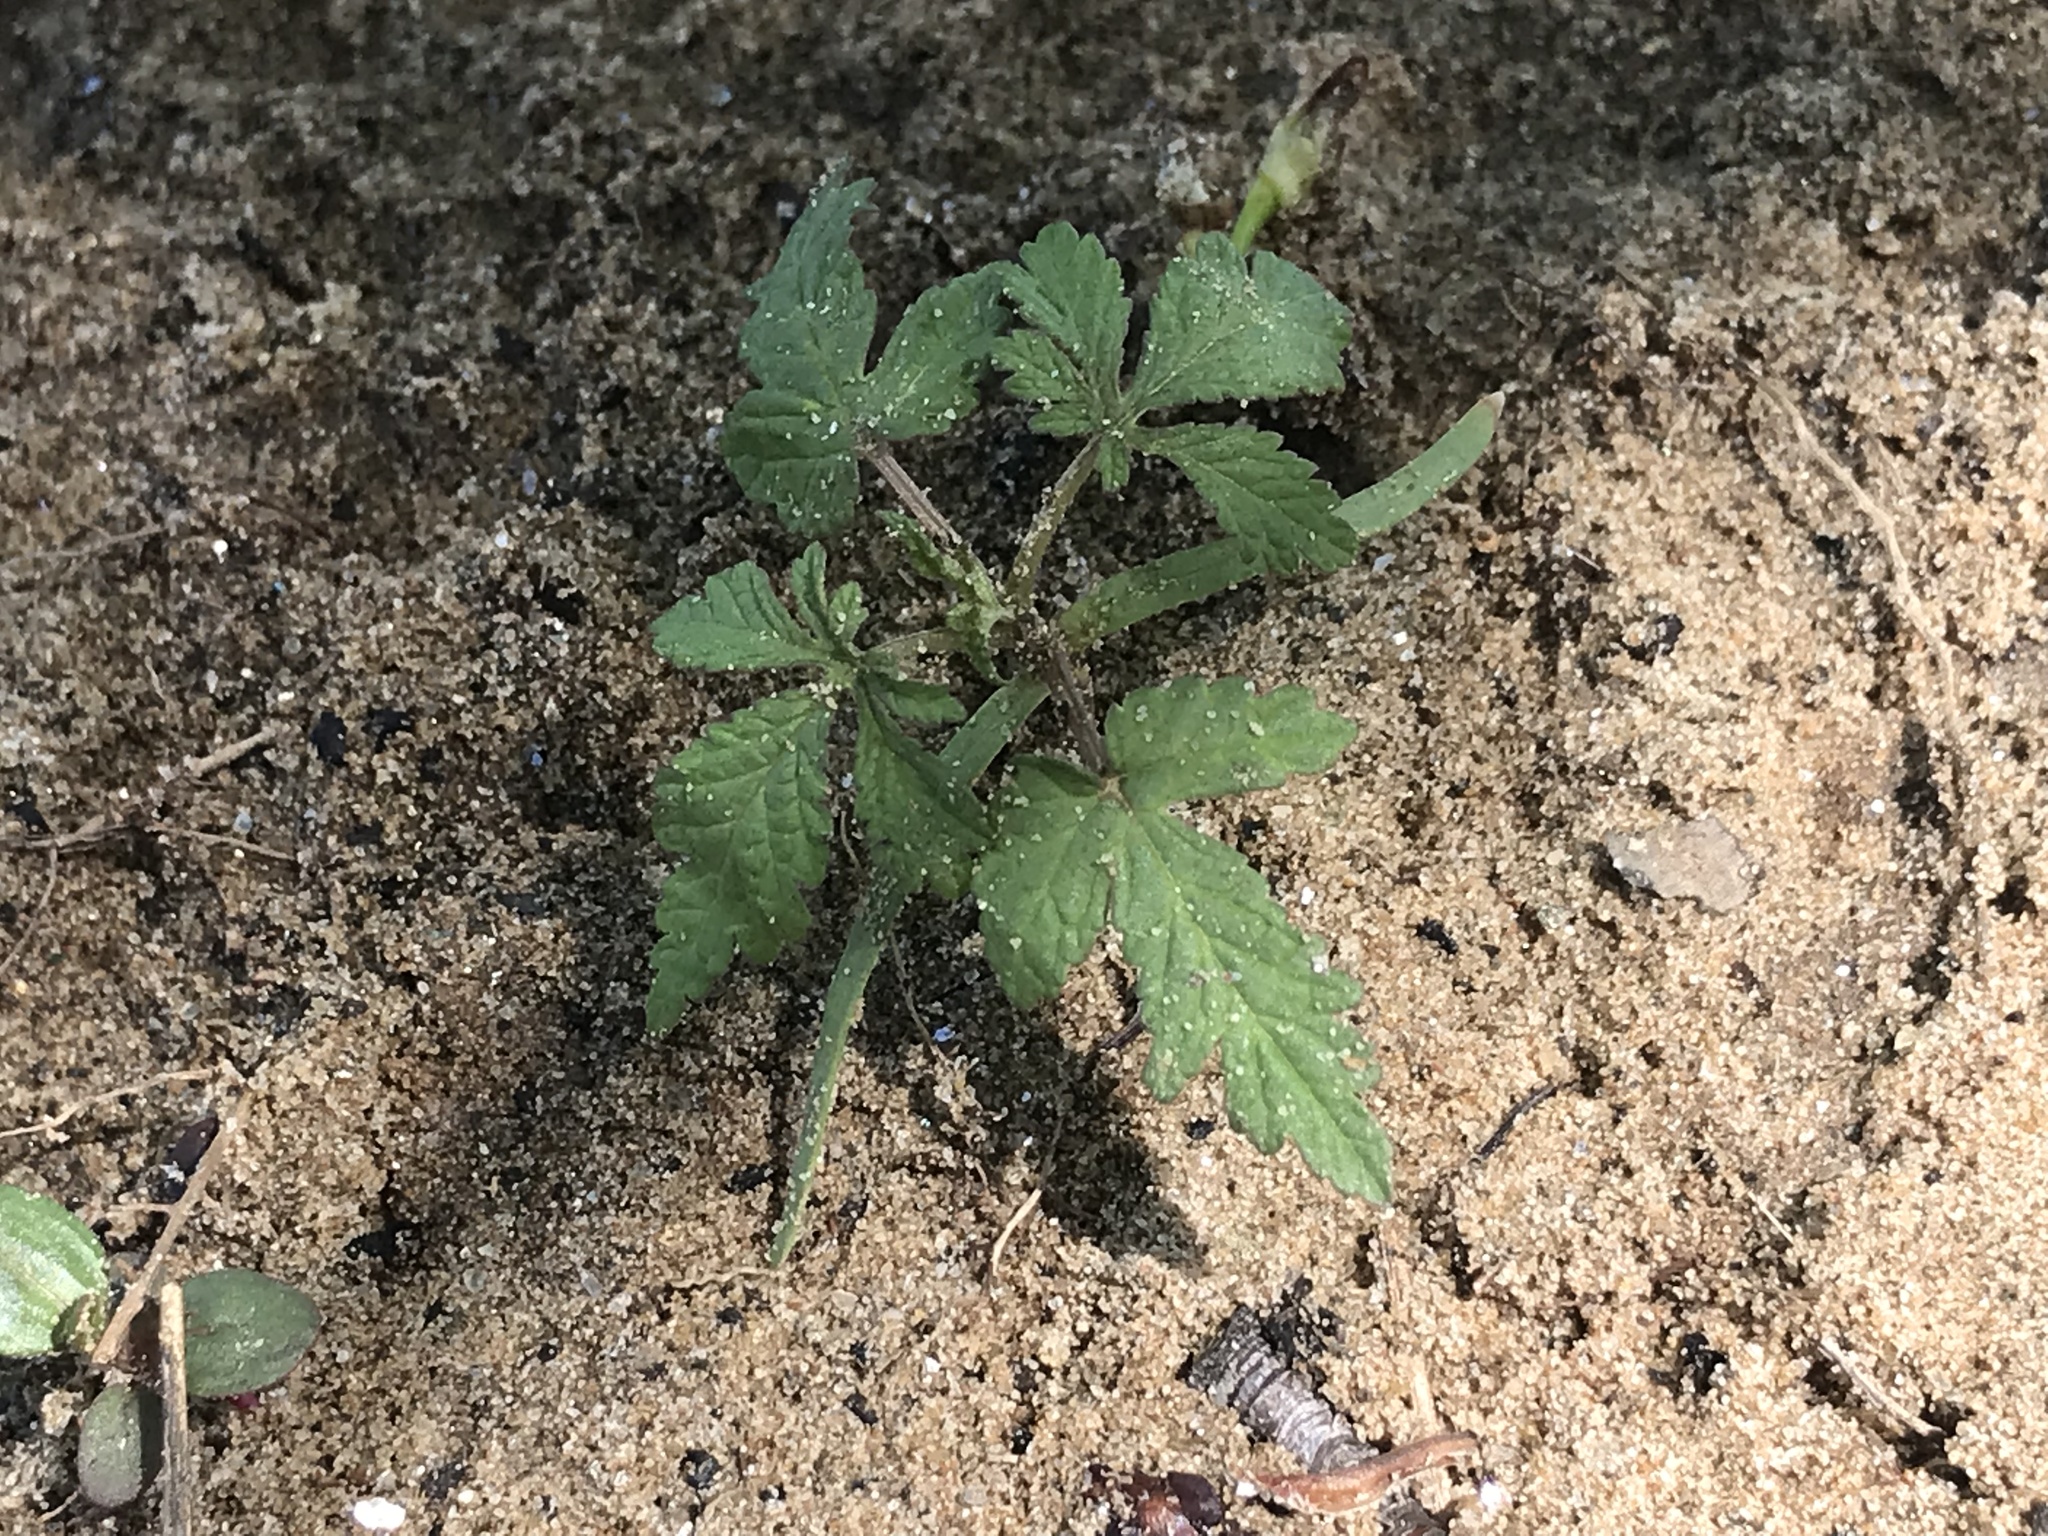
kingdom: Plantae
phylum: Tracheophyta
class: Magnoliopsida
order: Rosales
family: Cannabaceae
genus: Humulus
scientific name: Humulus scandens
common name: Japanese hop
